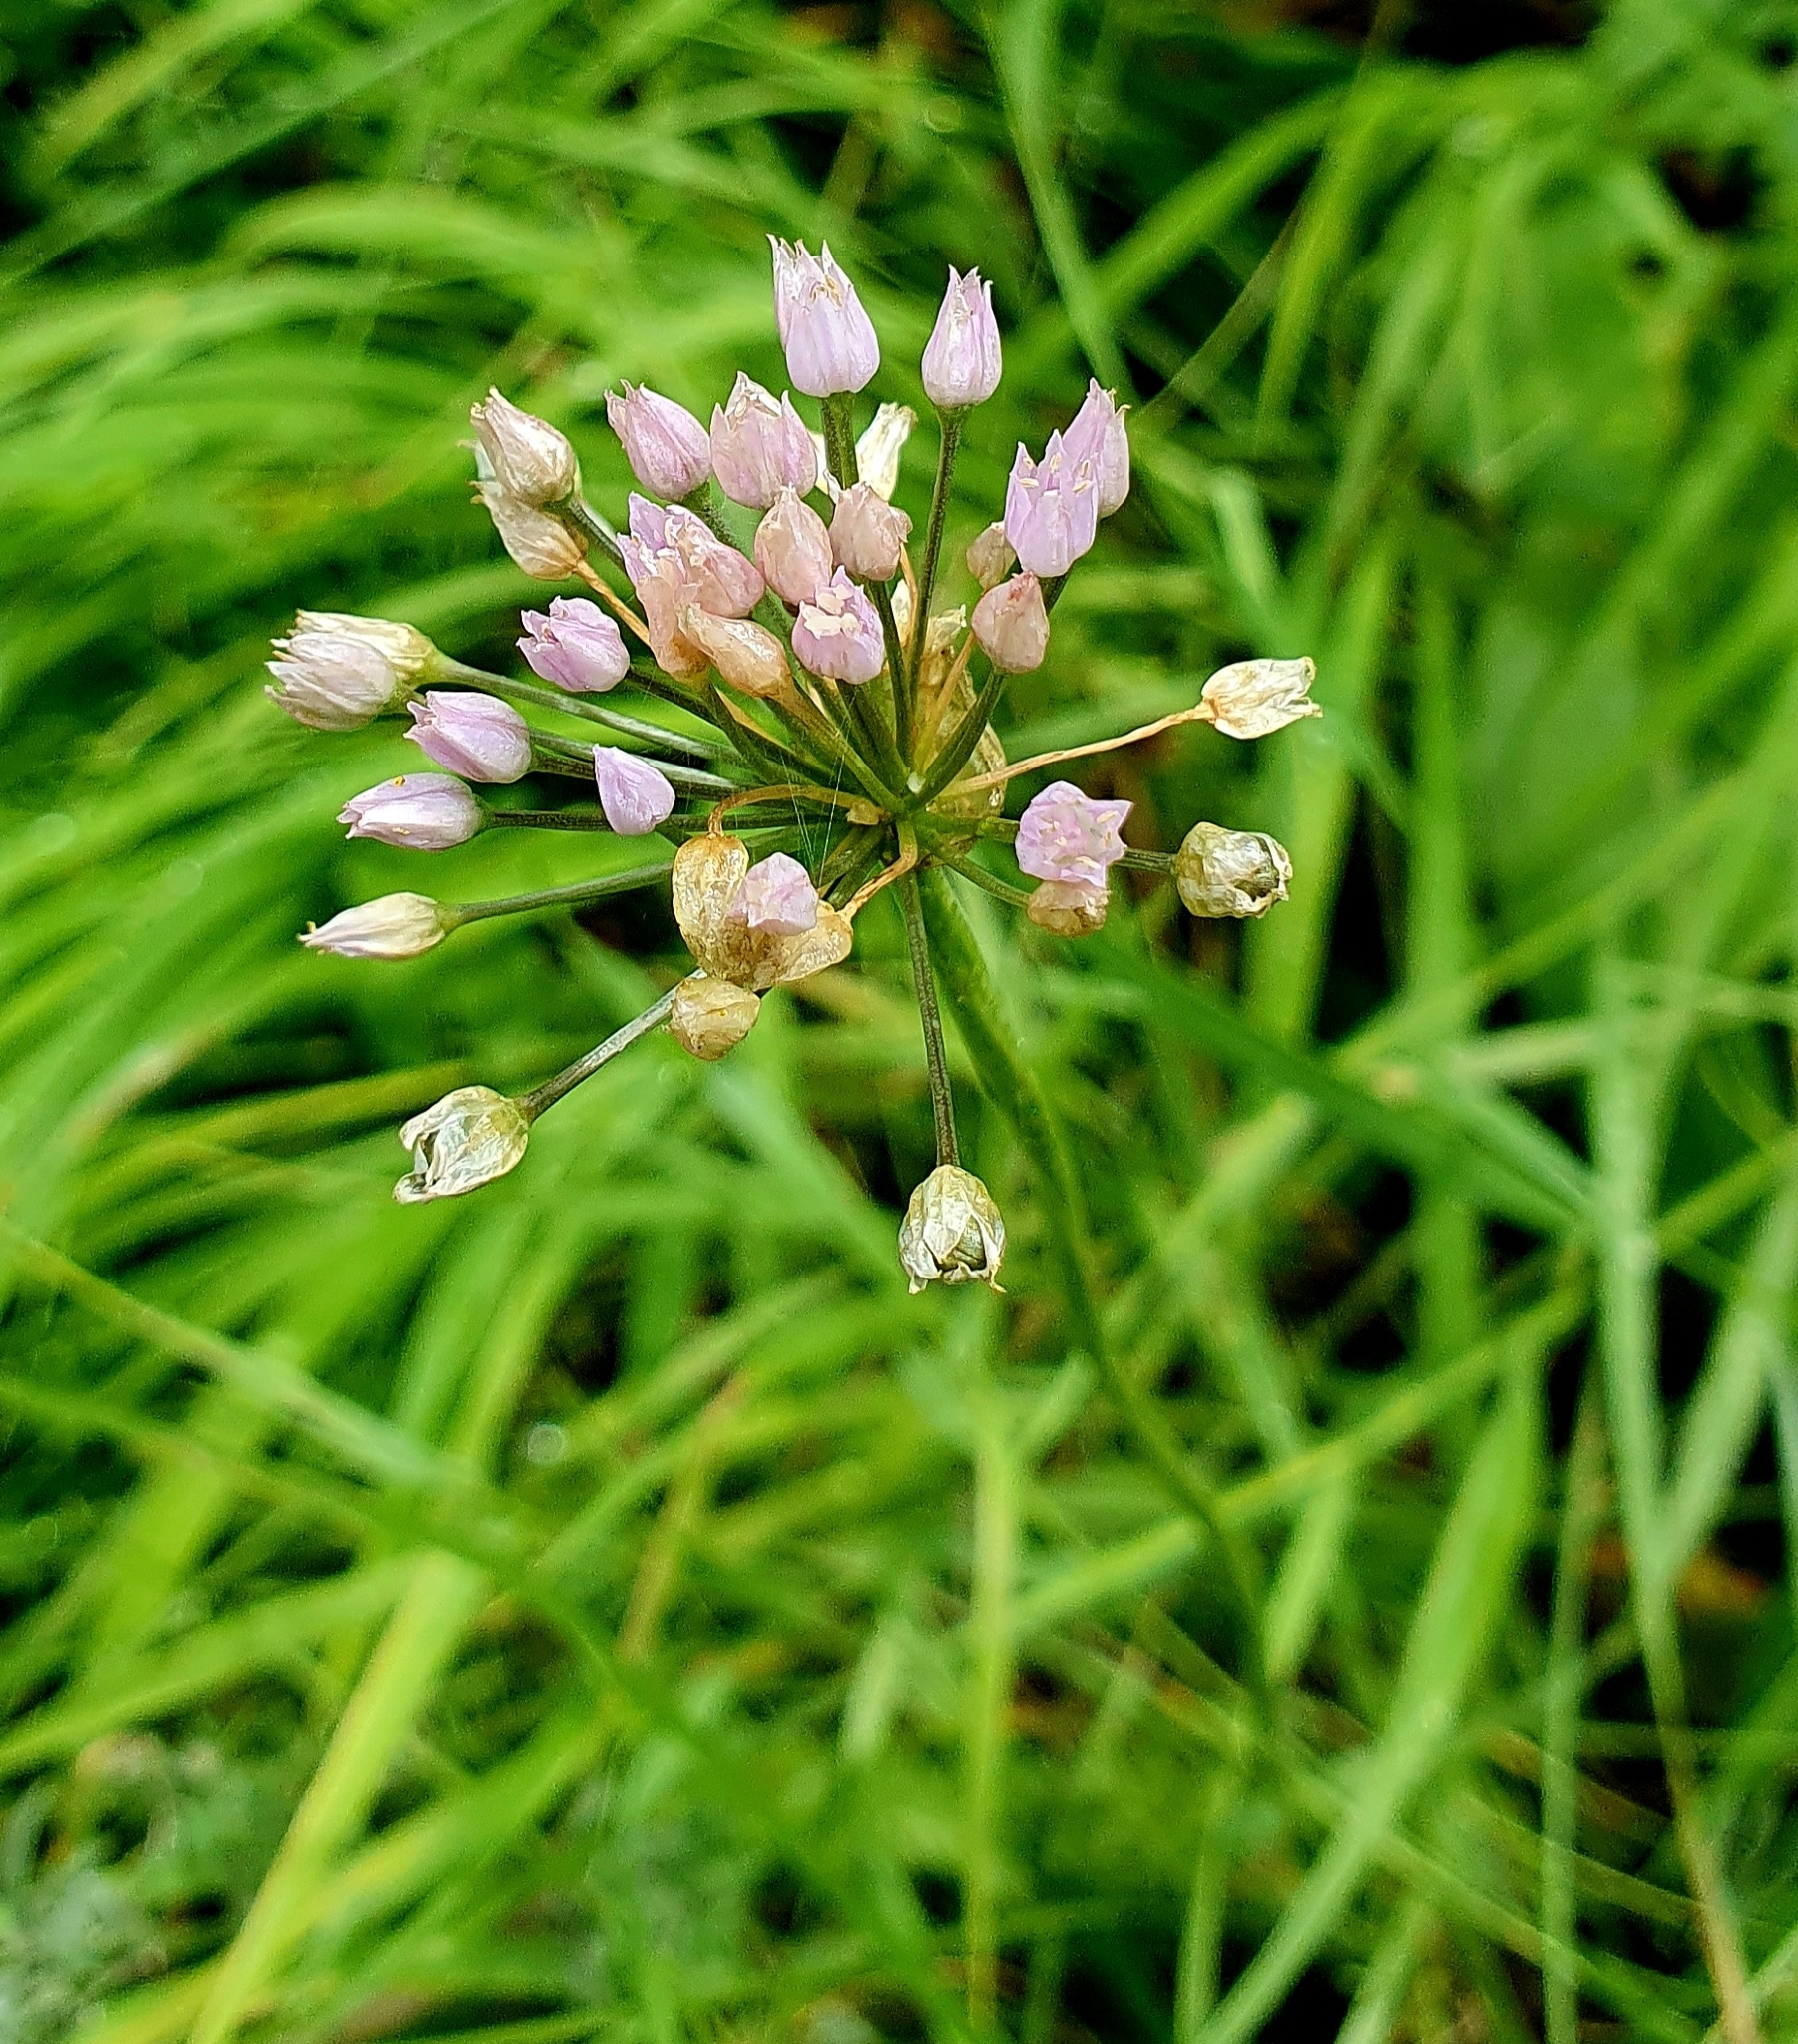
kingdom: Plantae
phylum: Tracheophyta
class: Liliopsida
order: Asparagales
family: Amaryllidaceae
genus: Allium
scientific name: Allium angulosum
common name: Mouse garlic
